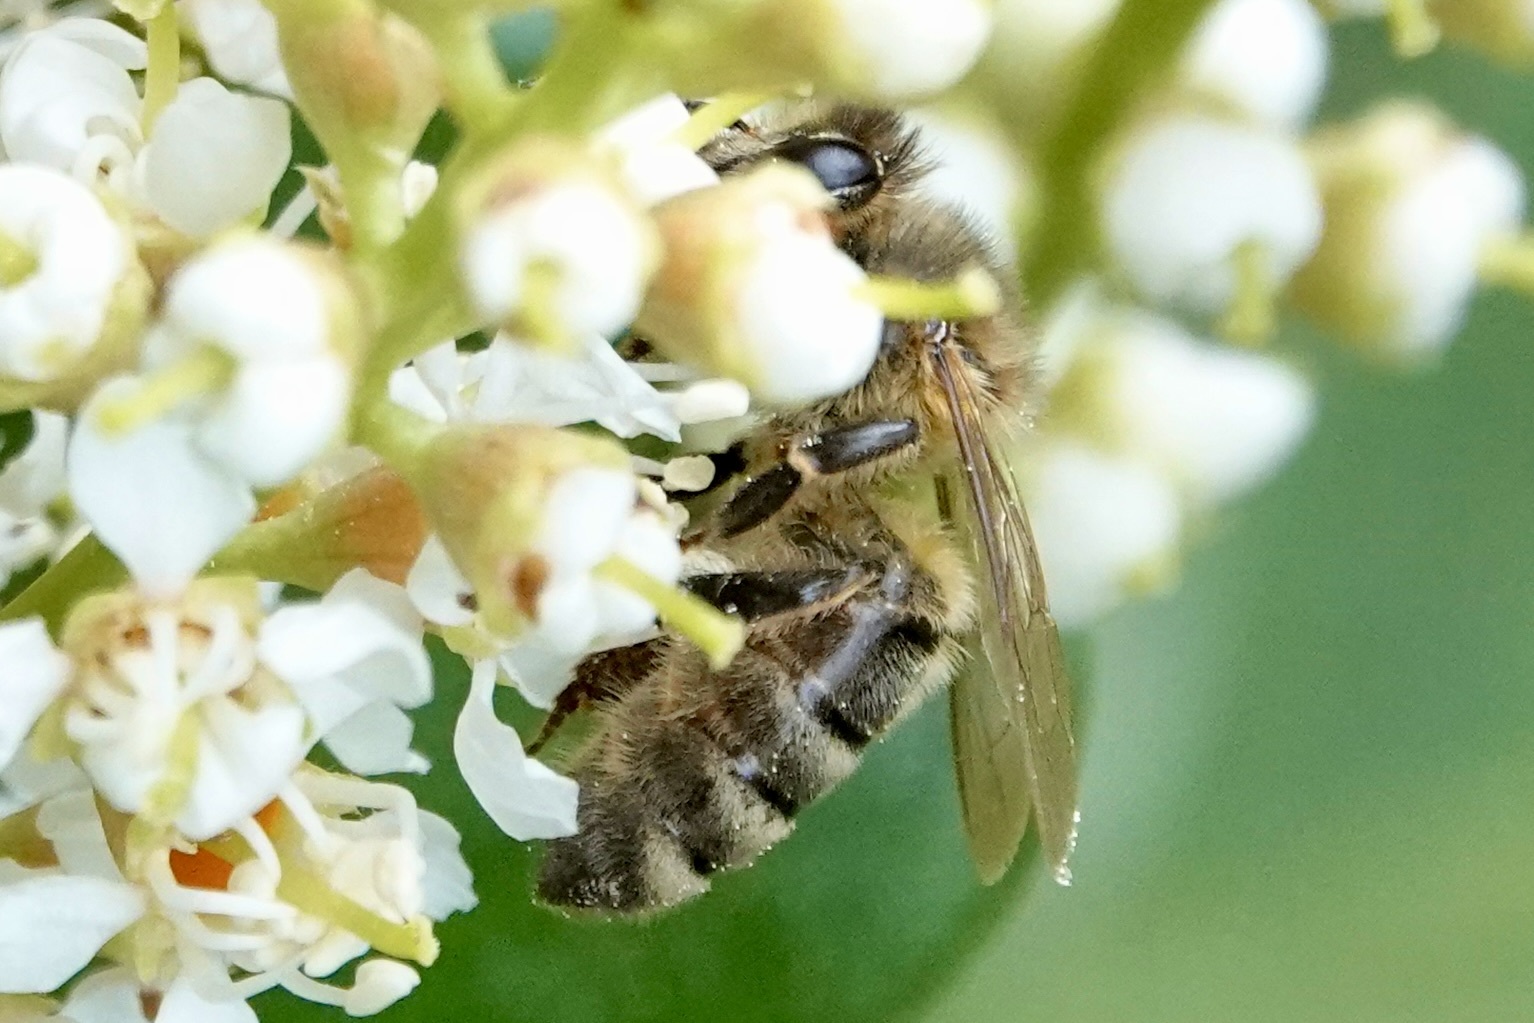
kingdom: Animalia
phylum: Arthropoda
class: Insecta
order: Hymenoptera
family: Apidae
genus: Apis
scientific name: Apis mellifera
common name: Honey bee
